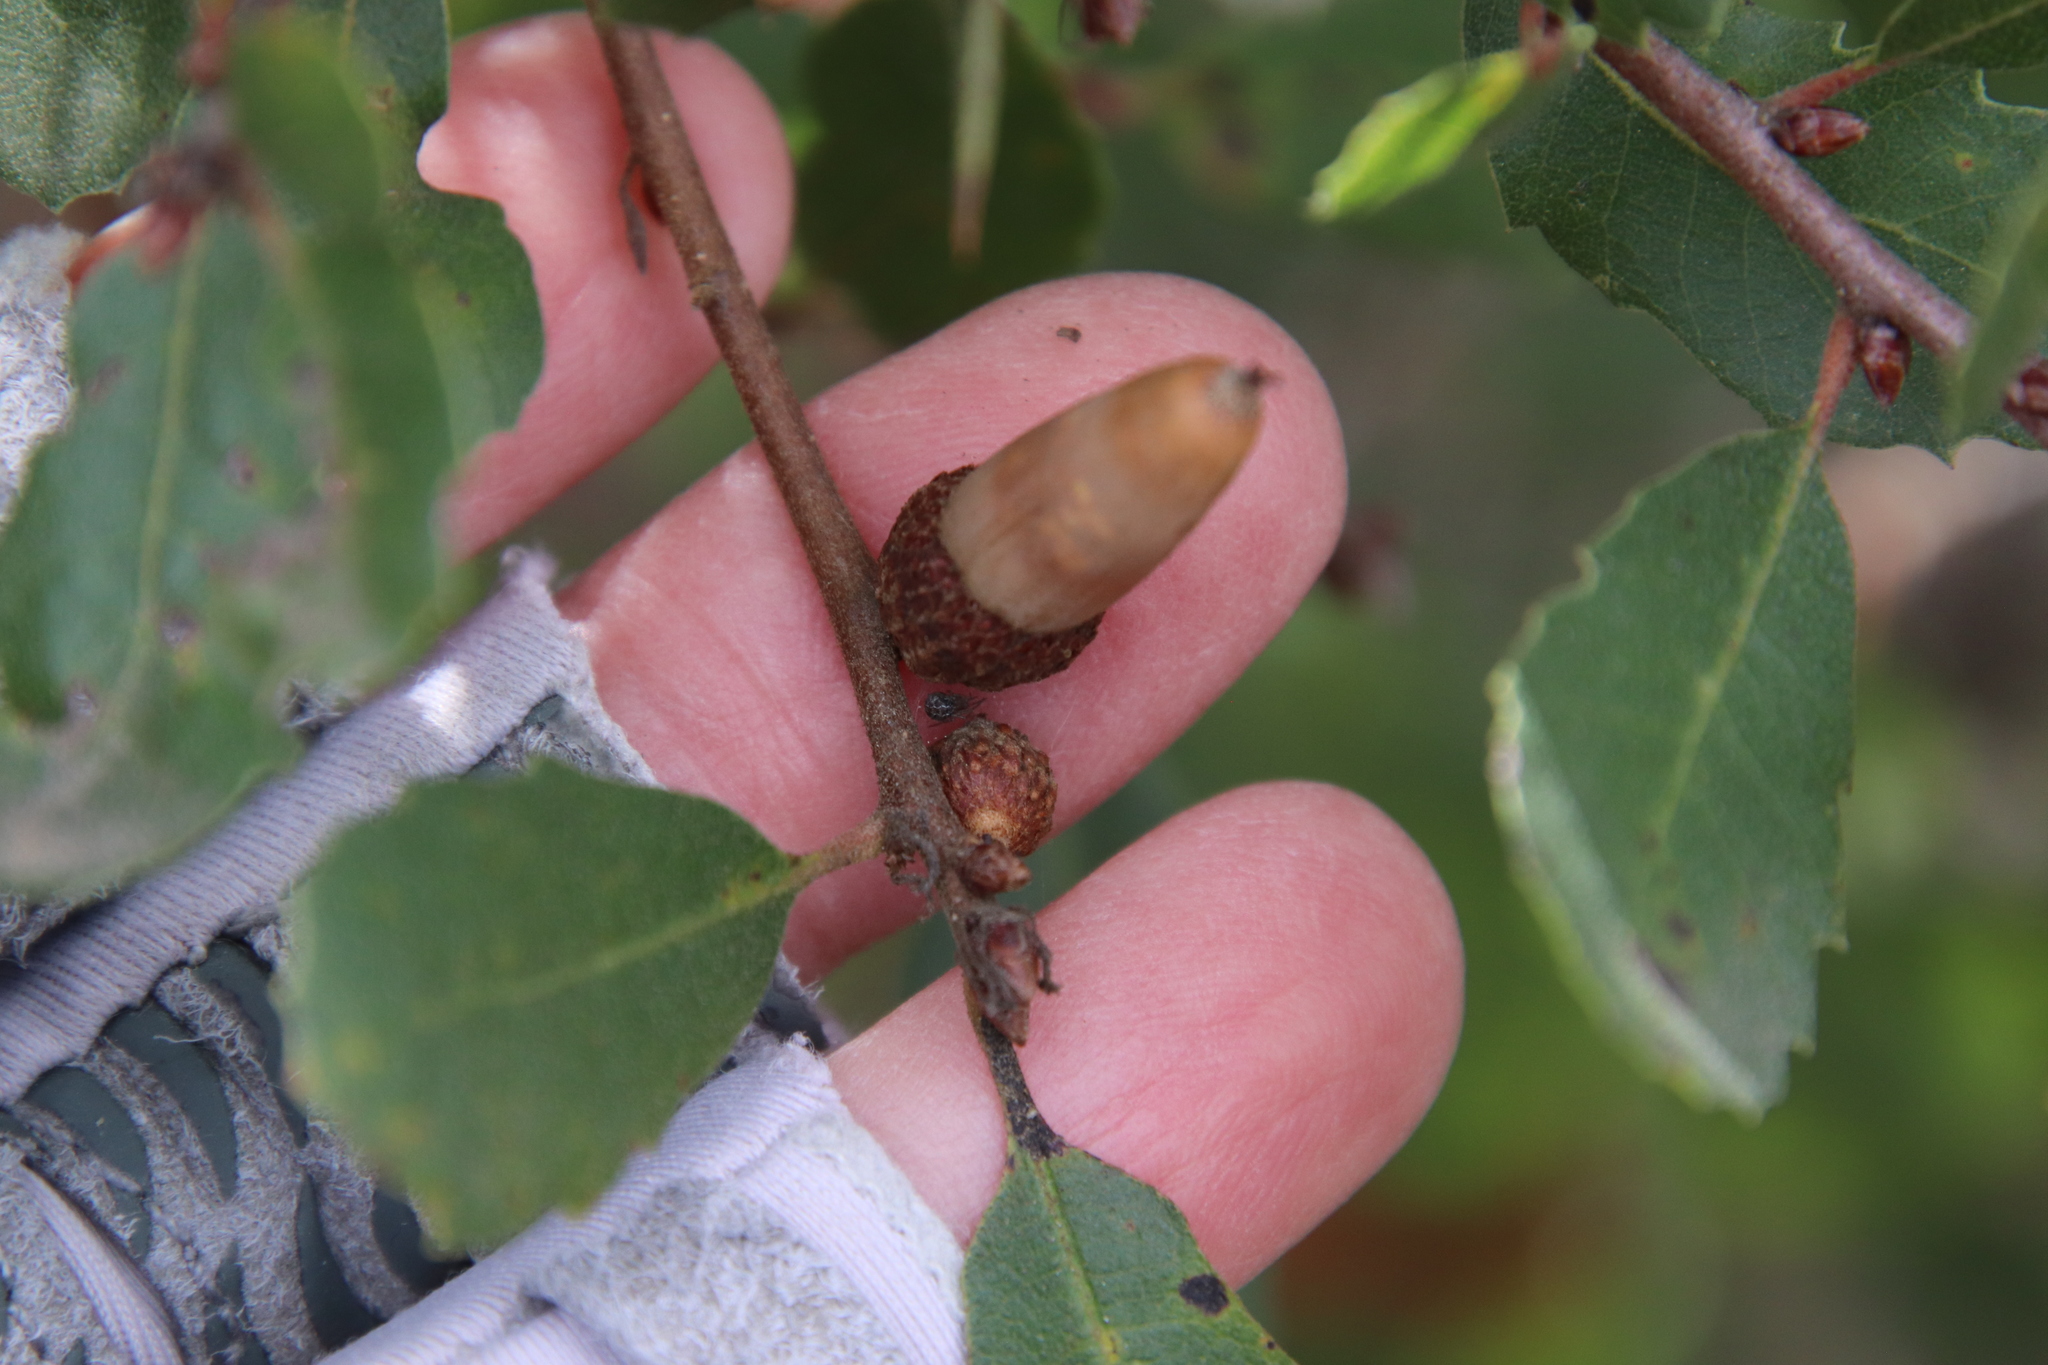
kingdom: Plantae
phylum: Tracheophyta
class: Magnoliopsida
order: Fagales
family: Fagaceae
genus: Quercus
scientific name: Quercus berberidifolia
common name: California scrub oak
